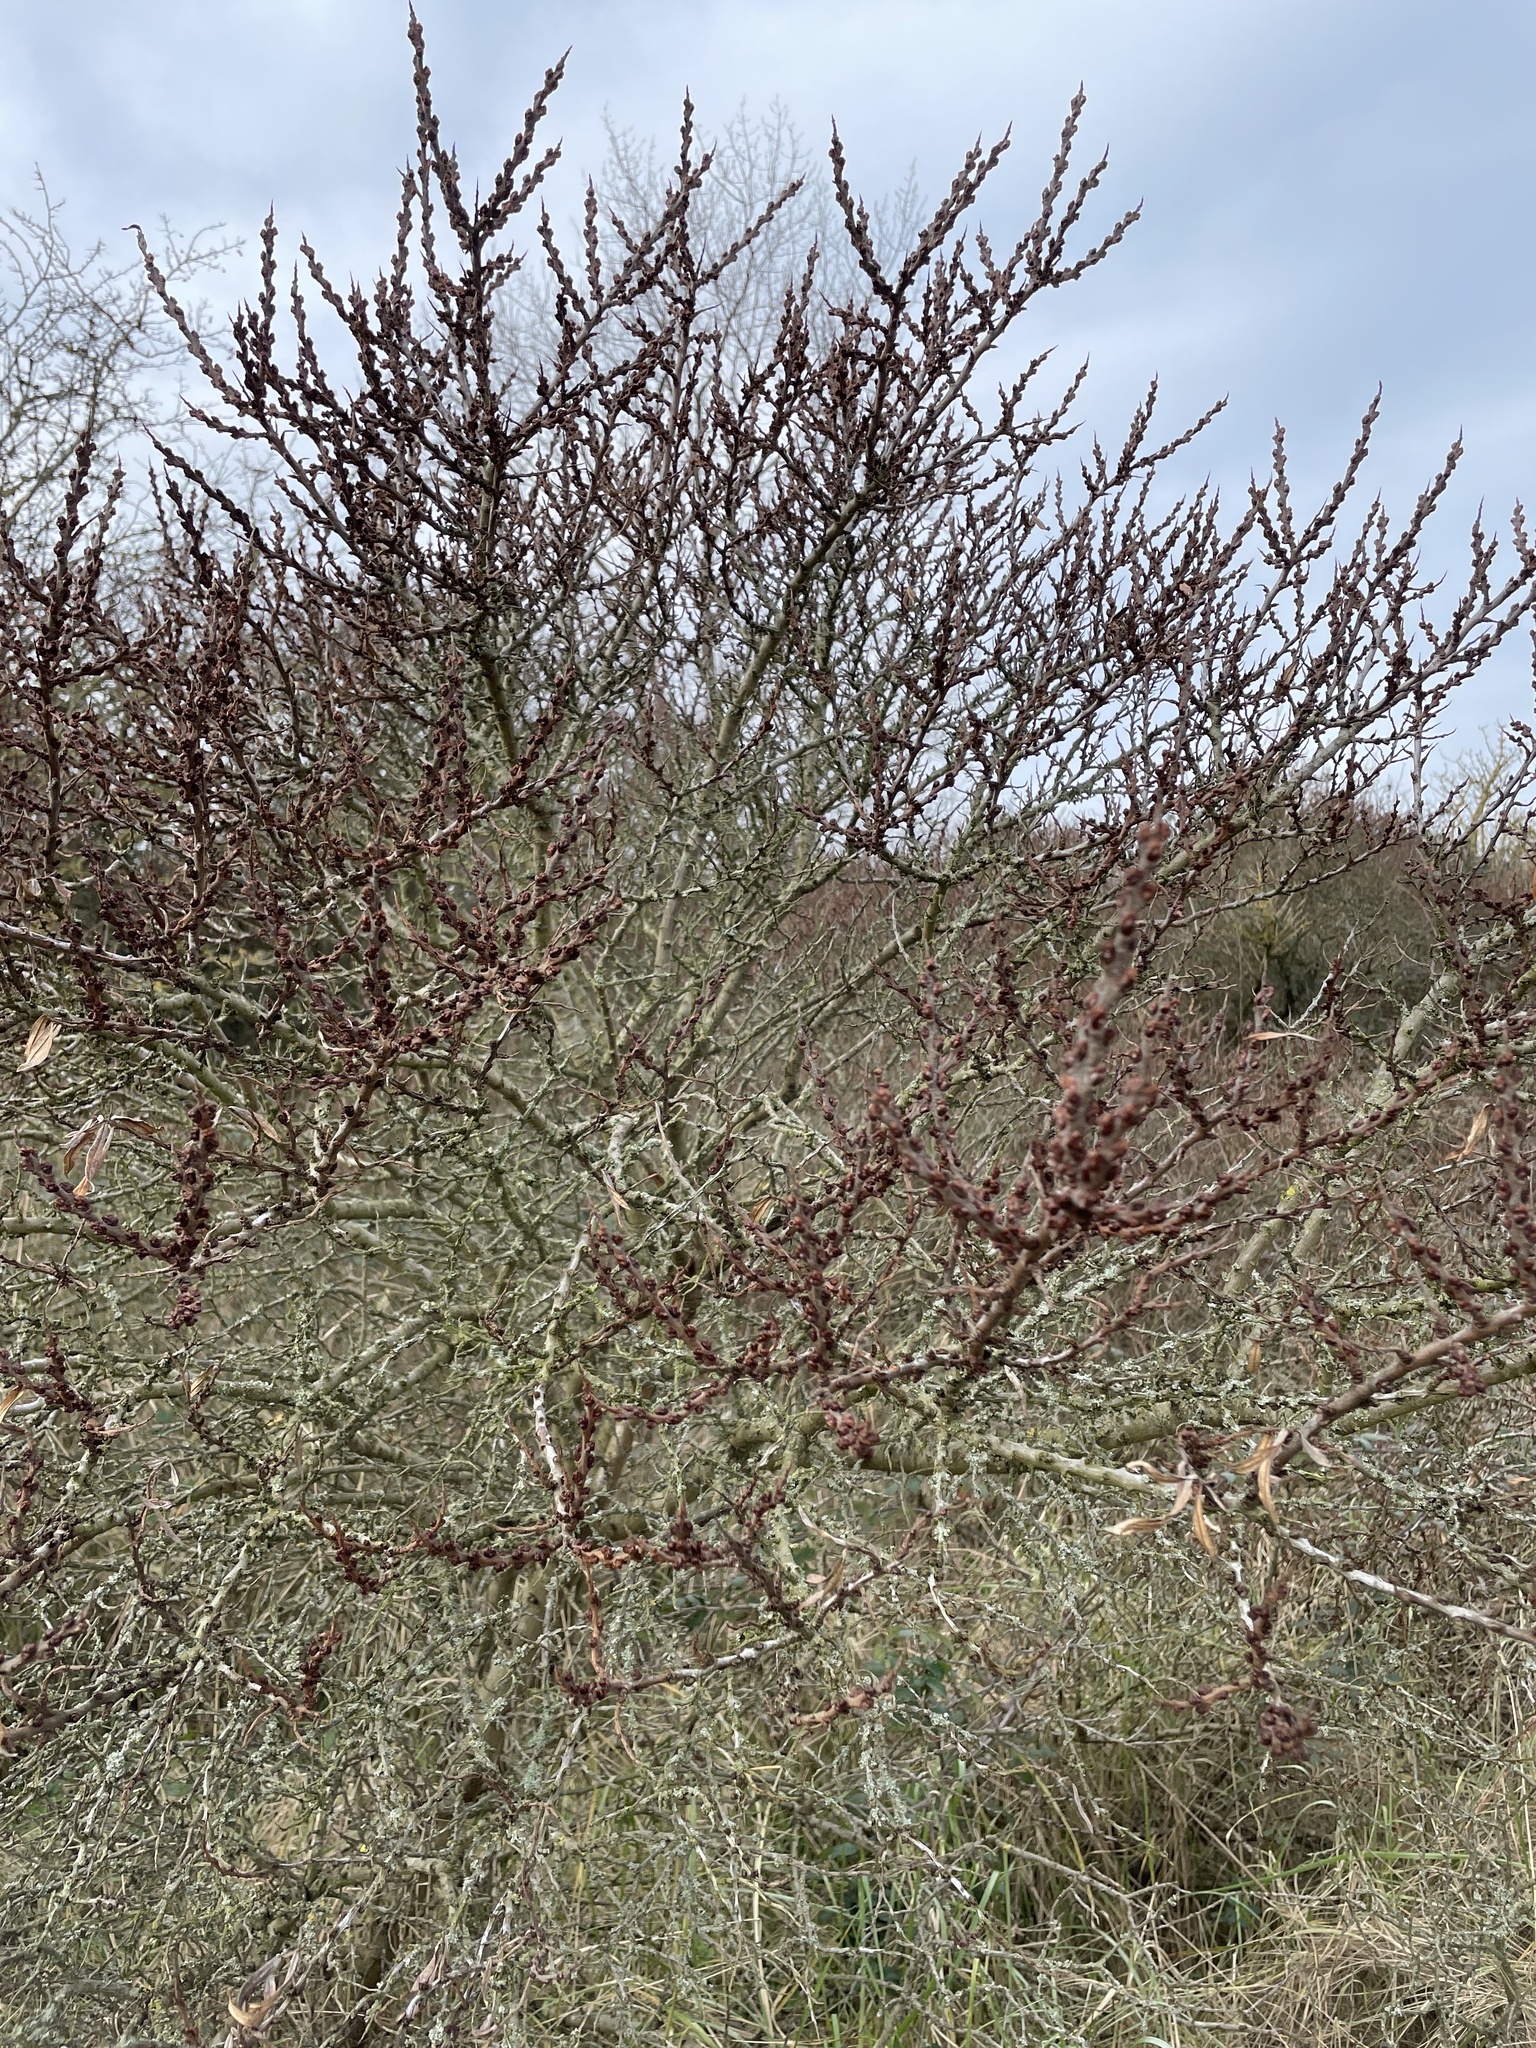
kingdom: Plantae
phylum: Tracheophyta
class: Magnoliopsida
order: Rosales
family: Elaeagnaceae
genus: Hippophae
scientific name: Hippophae rhamnoides
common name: Sea-buckthorn
